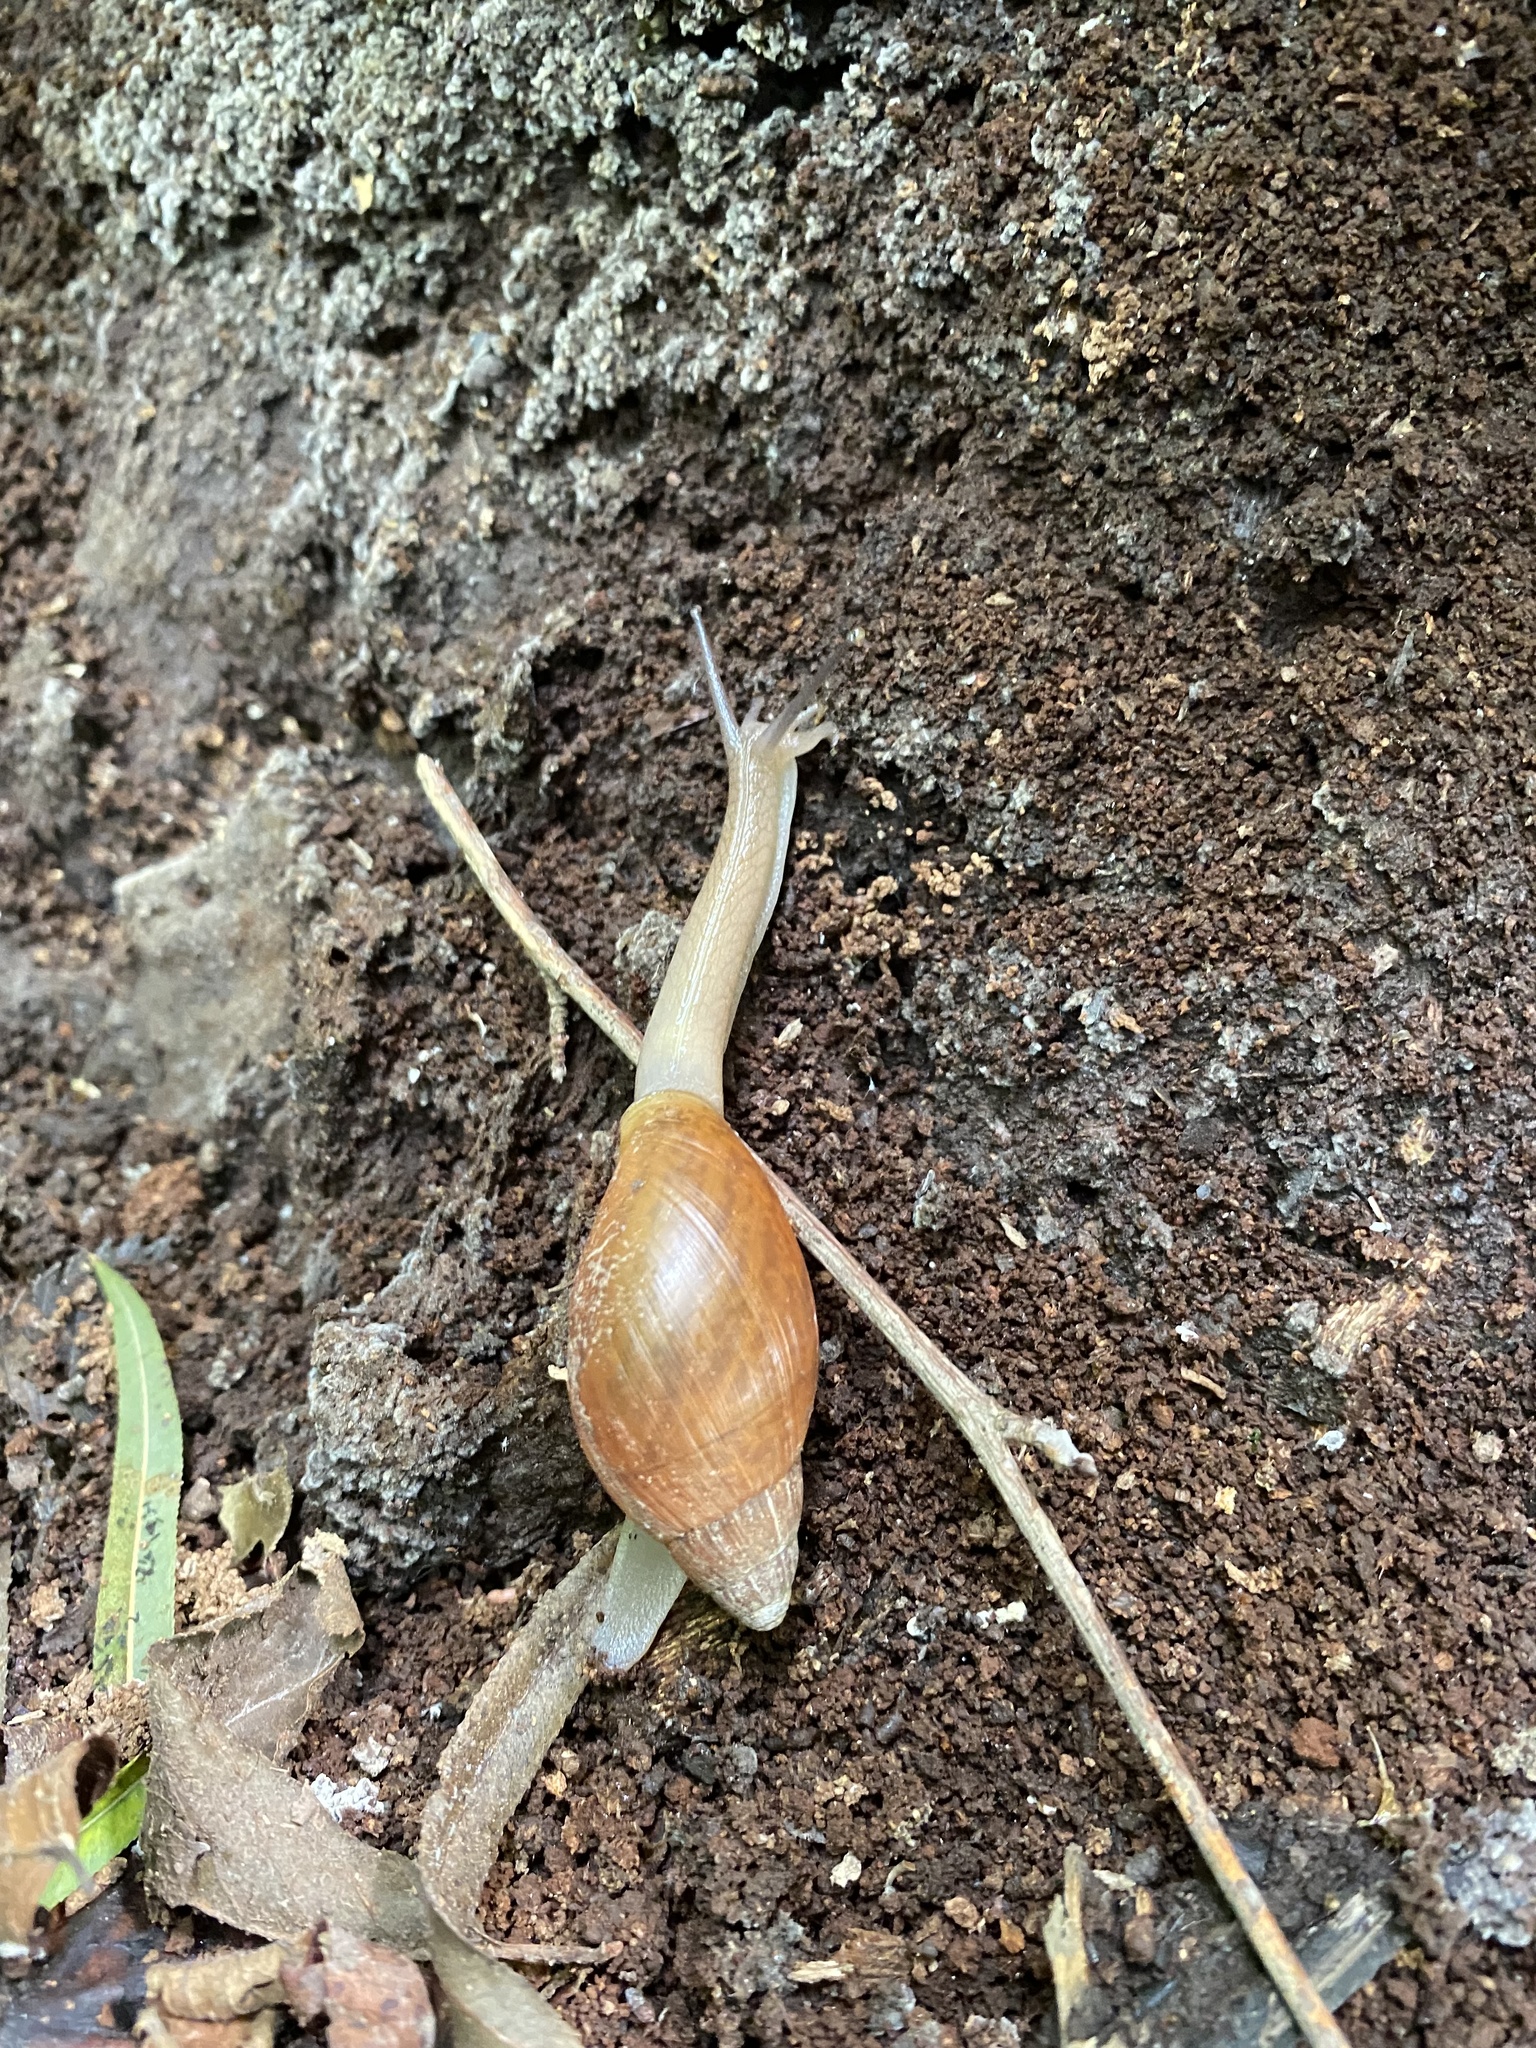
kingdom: Animalia
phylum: Mollusca
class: Gastropoda
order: Stylommatophora
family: Spiraxidae
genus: Euglandina
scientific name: Euglandina rosea
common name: Rosy wolfsnail
